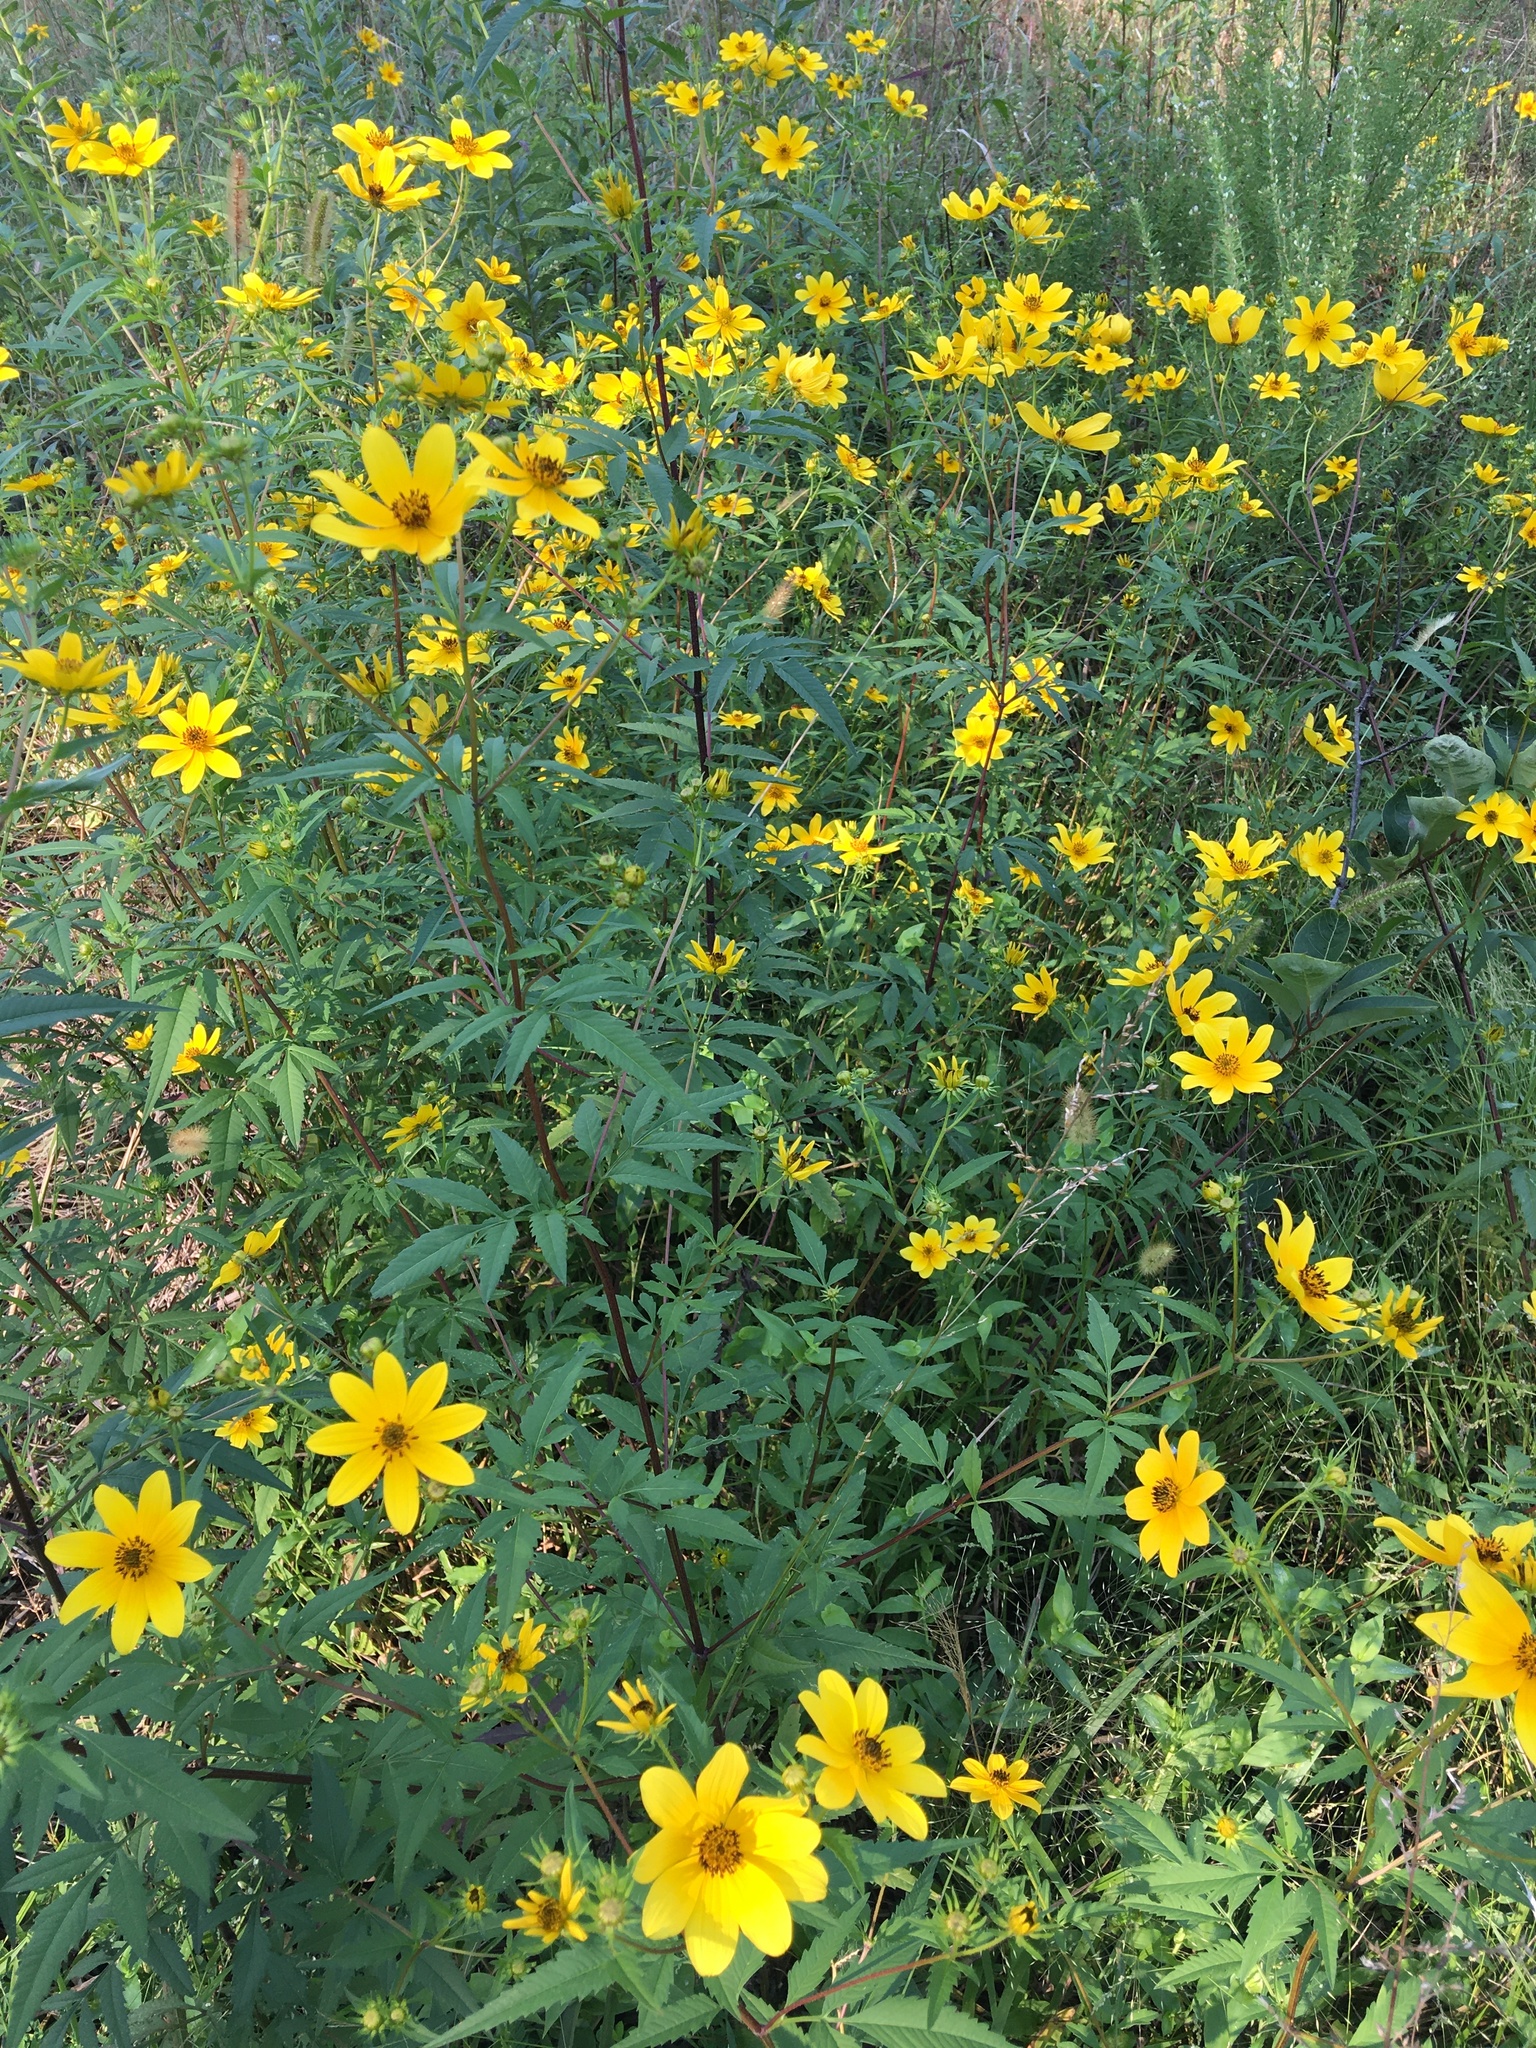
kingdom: Plantae
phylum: Tracheophyta
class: Magnoliopsida
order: Asterales
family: Asteraceae
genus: Bidens
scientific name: Bidens aristosa
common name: Western tickseed
